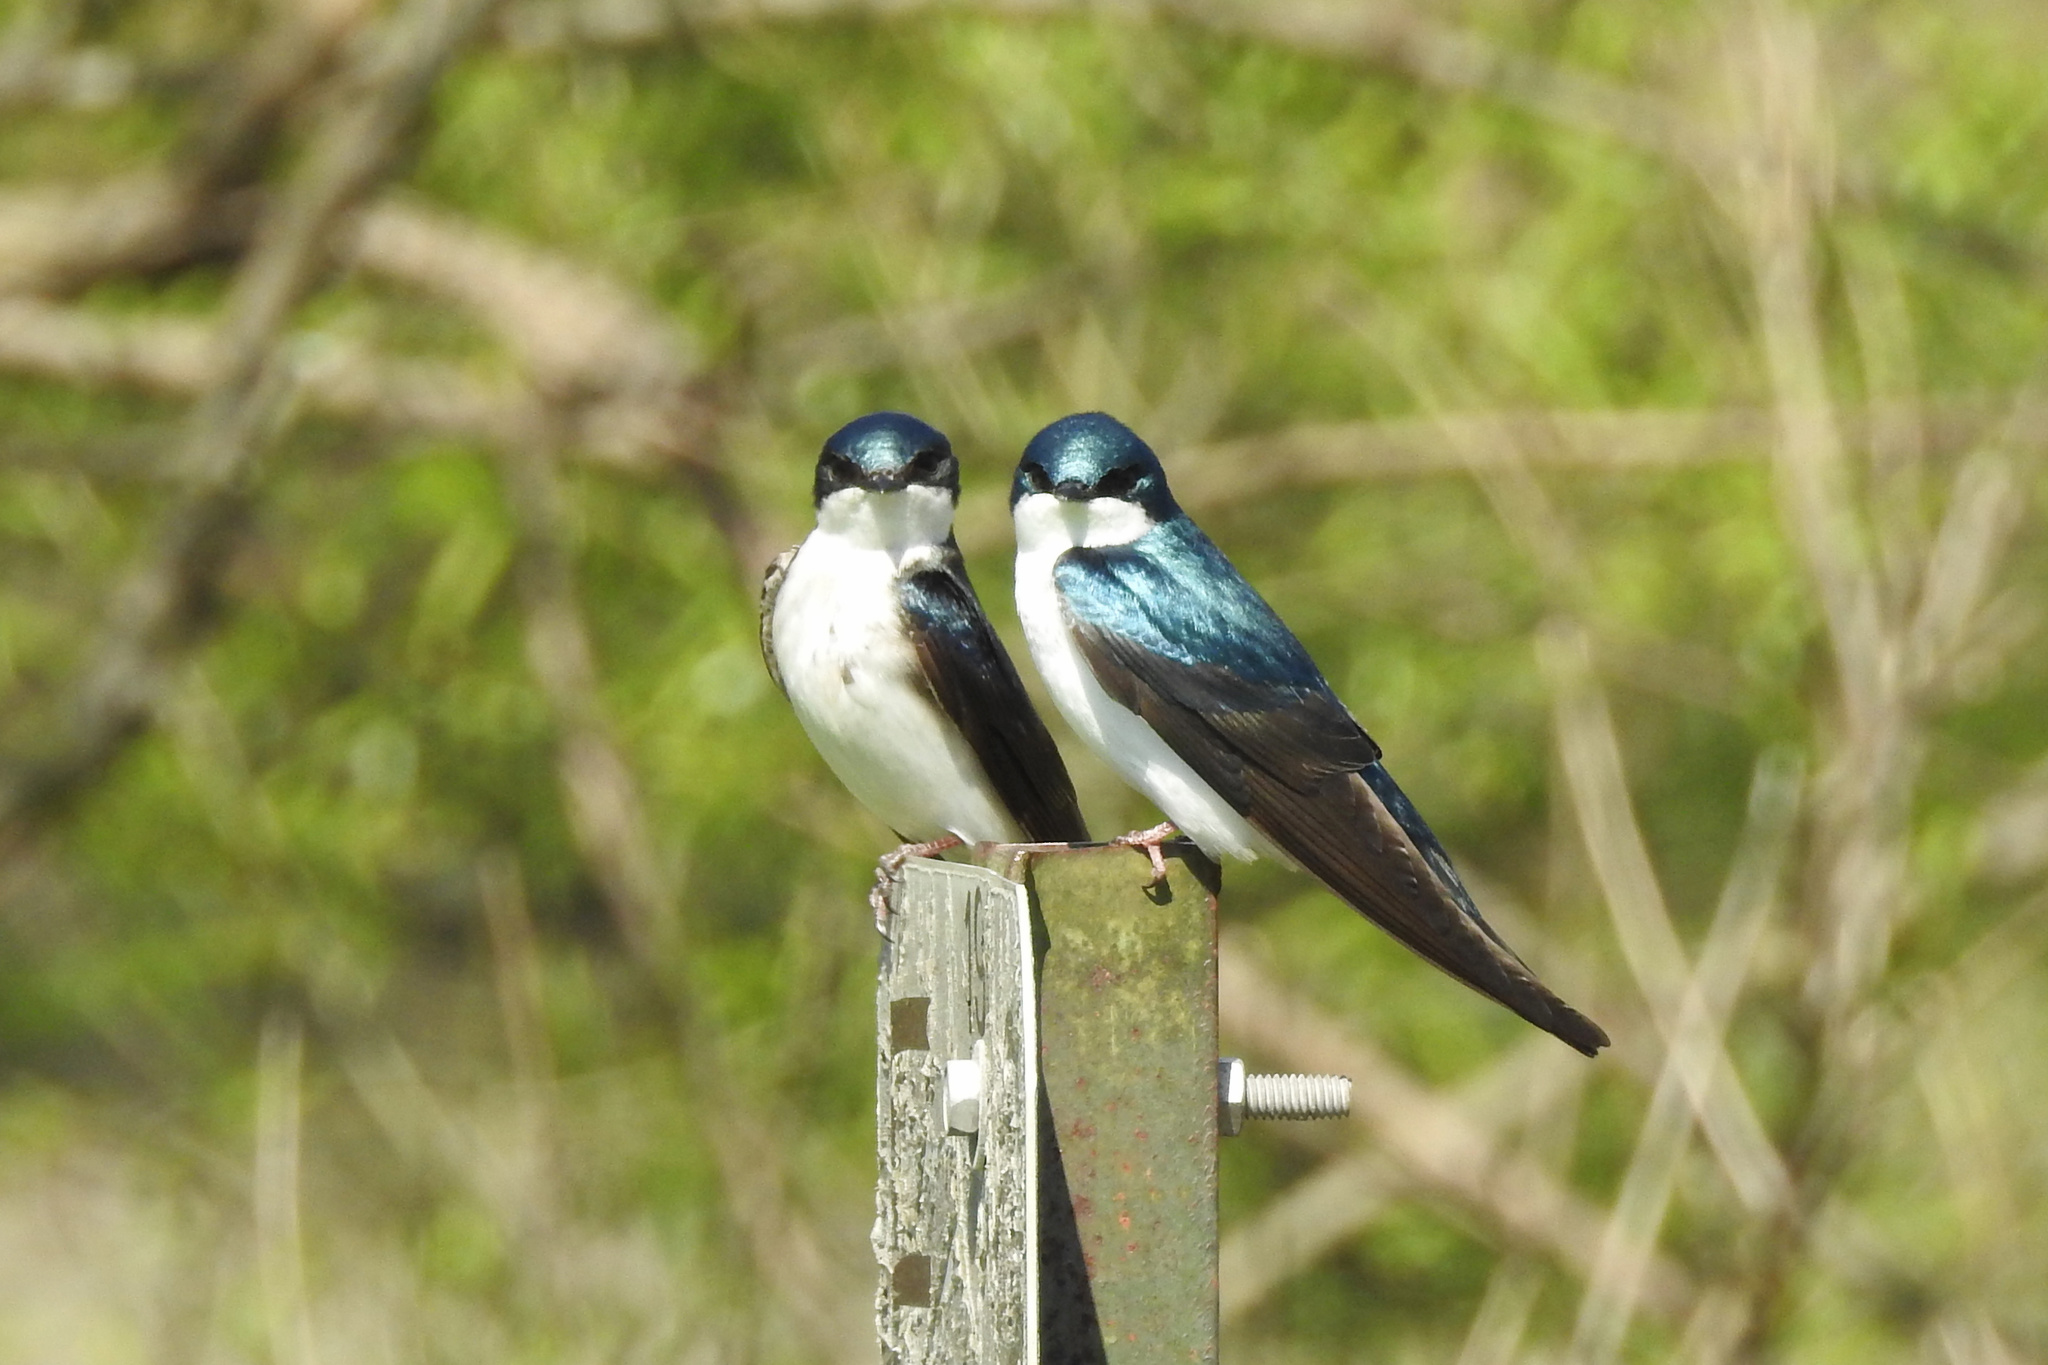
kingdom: Animalia
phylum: Chordata
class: Aves
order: Passeriformes
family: Hirundinidae
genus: Tachycineta
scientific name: Tachycineta bicolor
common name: Tree swallow
